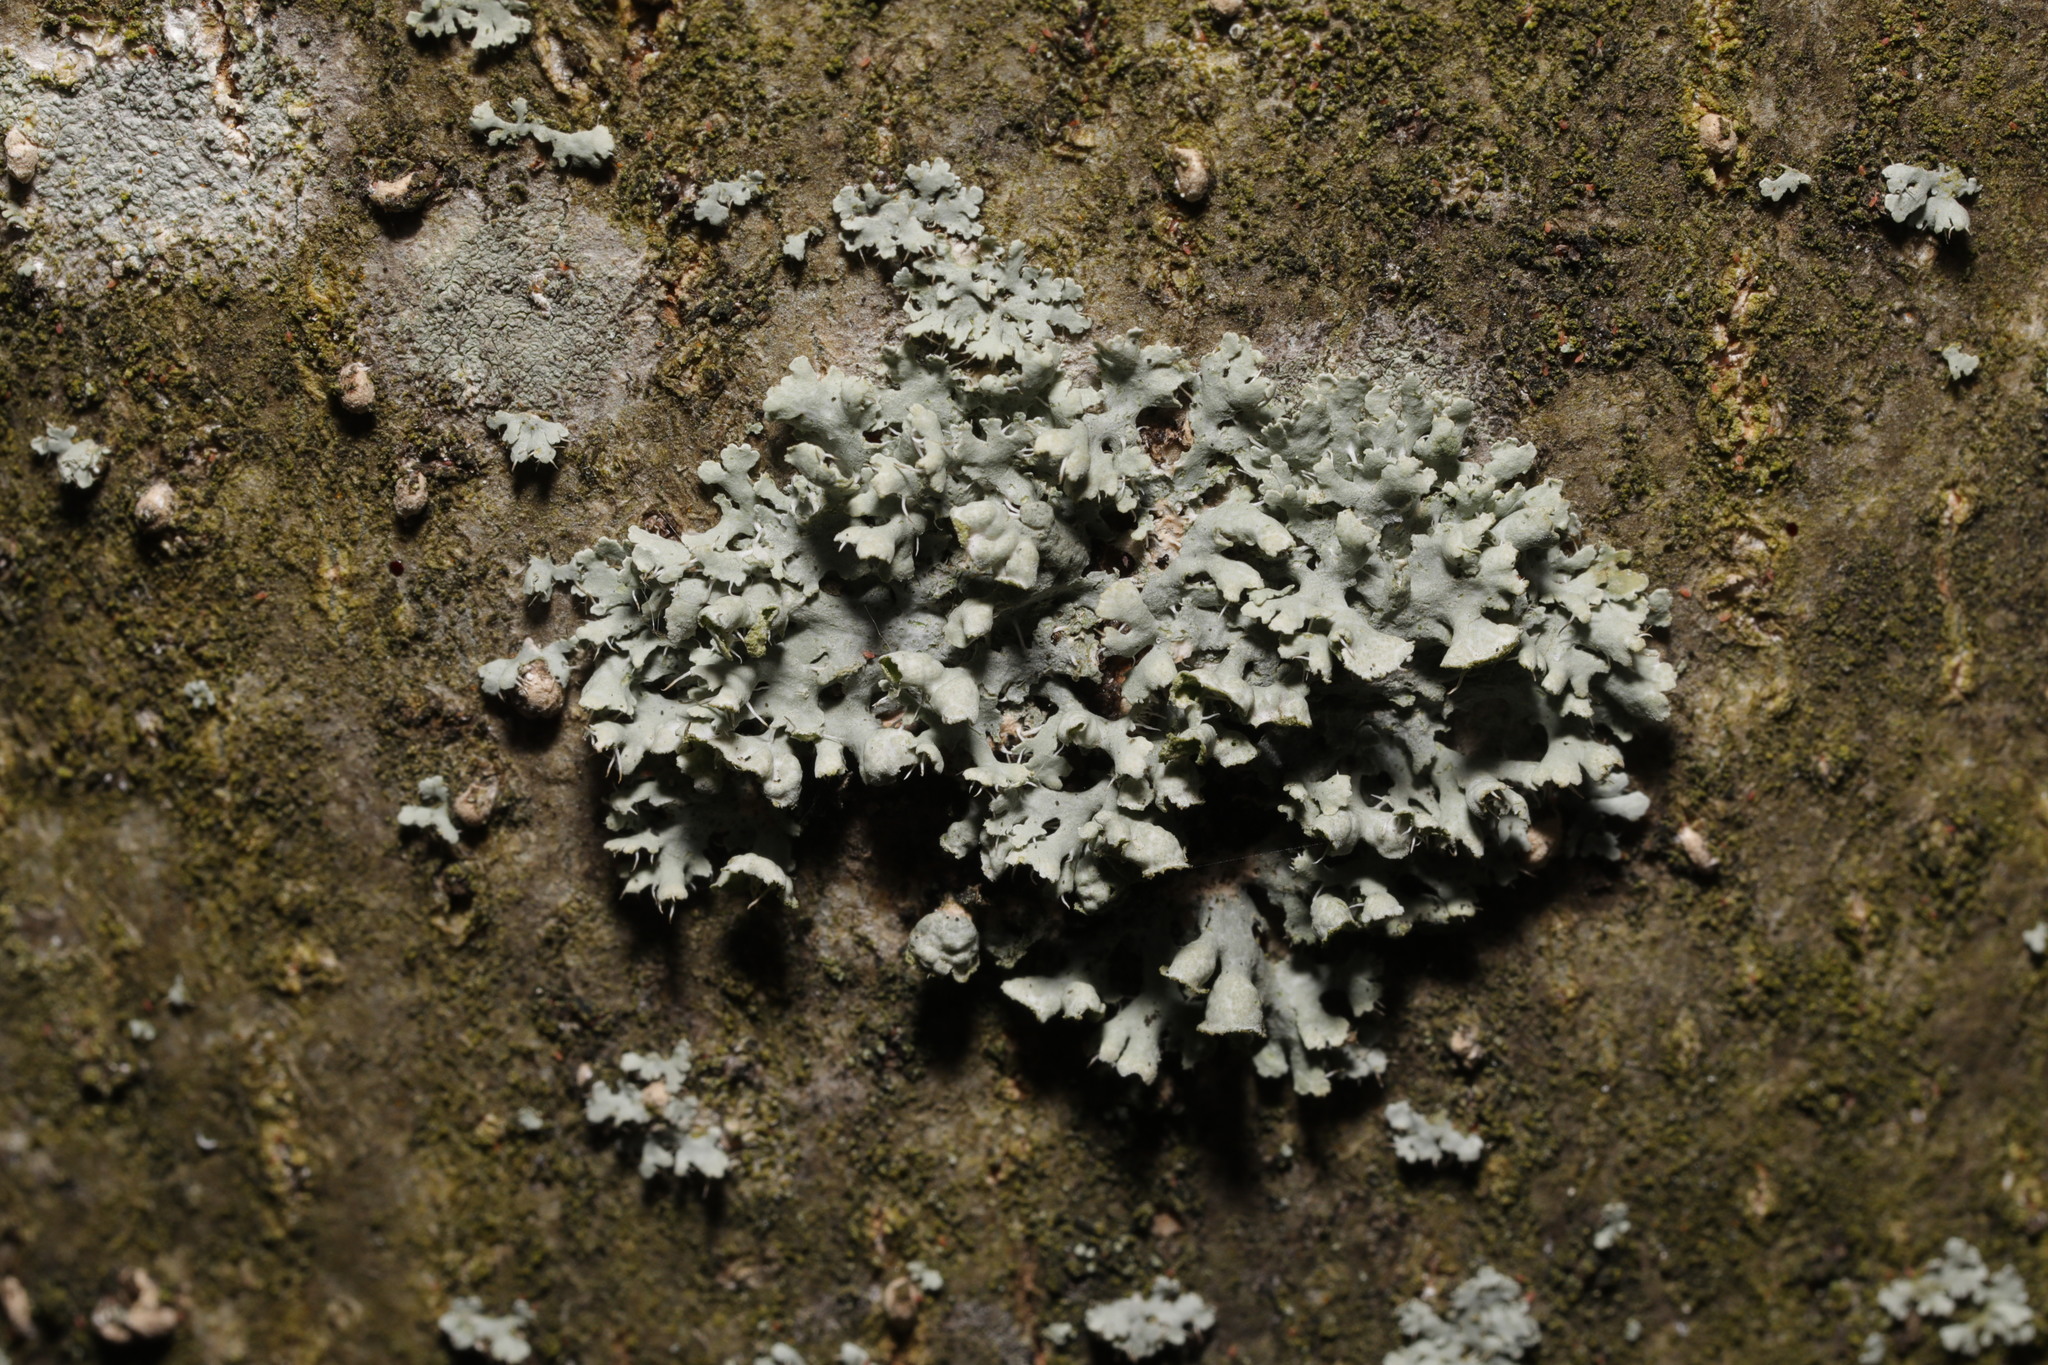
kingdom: Fungi
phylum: Ascomycota
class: Lecanoromycetes
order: Caliciales
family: Physciaceae
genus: Physcia
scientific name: Physcia adscendens
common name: Hooded rosette lichen
